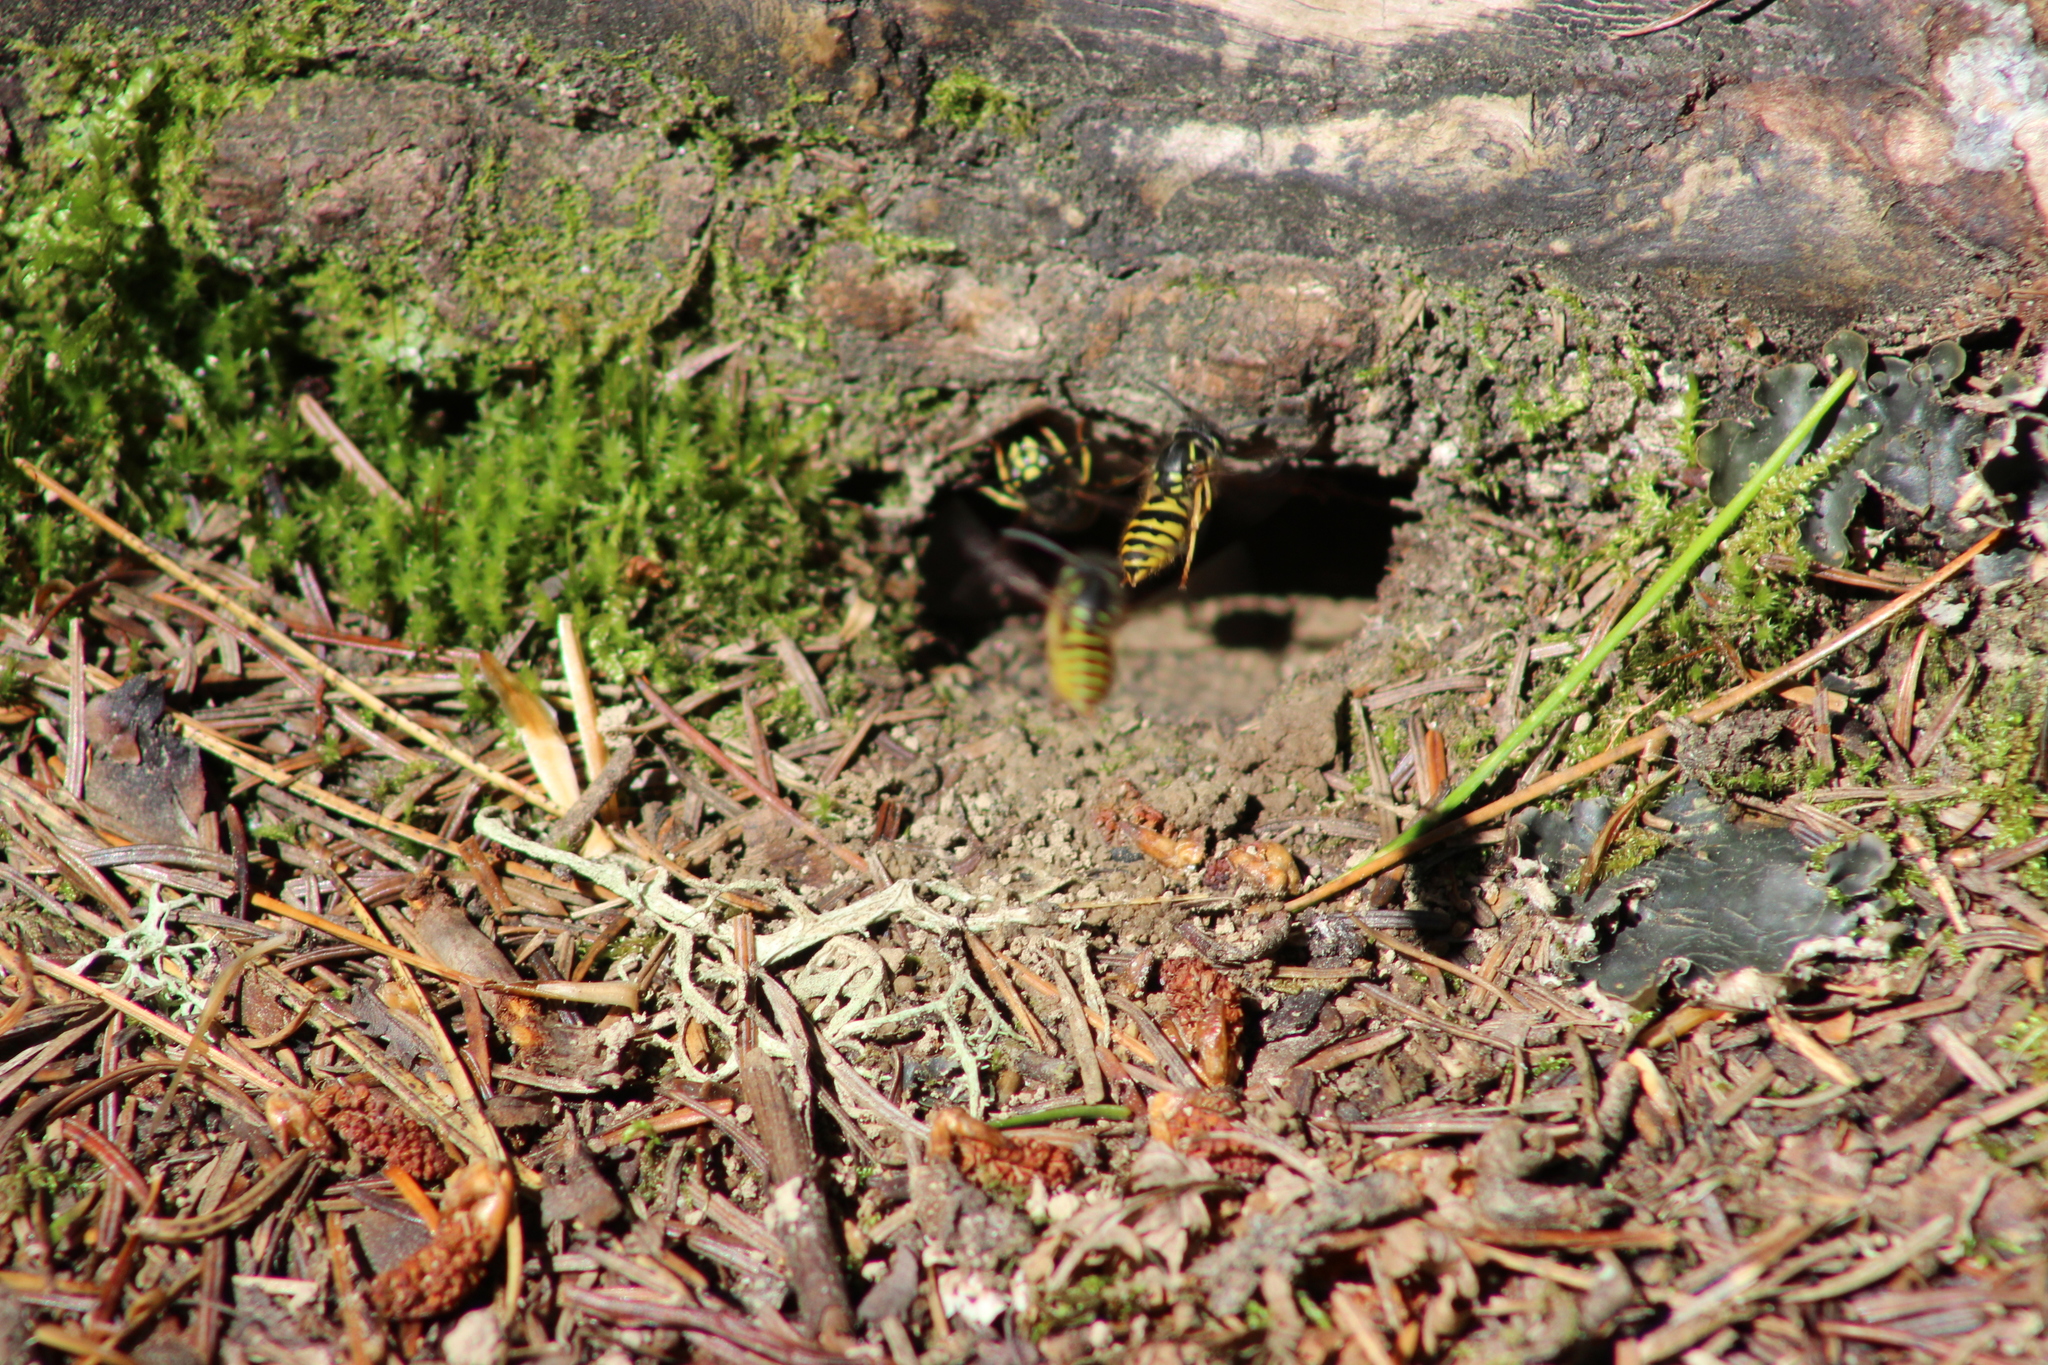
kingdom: Animalia
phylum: Arthropoda
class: Insecta
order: Hymenoptera
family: Vespidae
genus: Vespula
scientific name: Vespula vulgaris
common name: Common wasp
